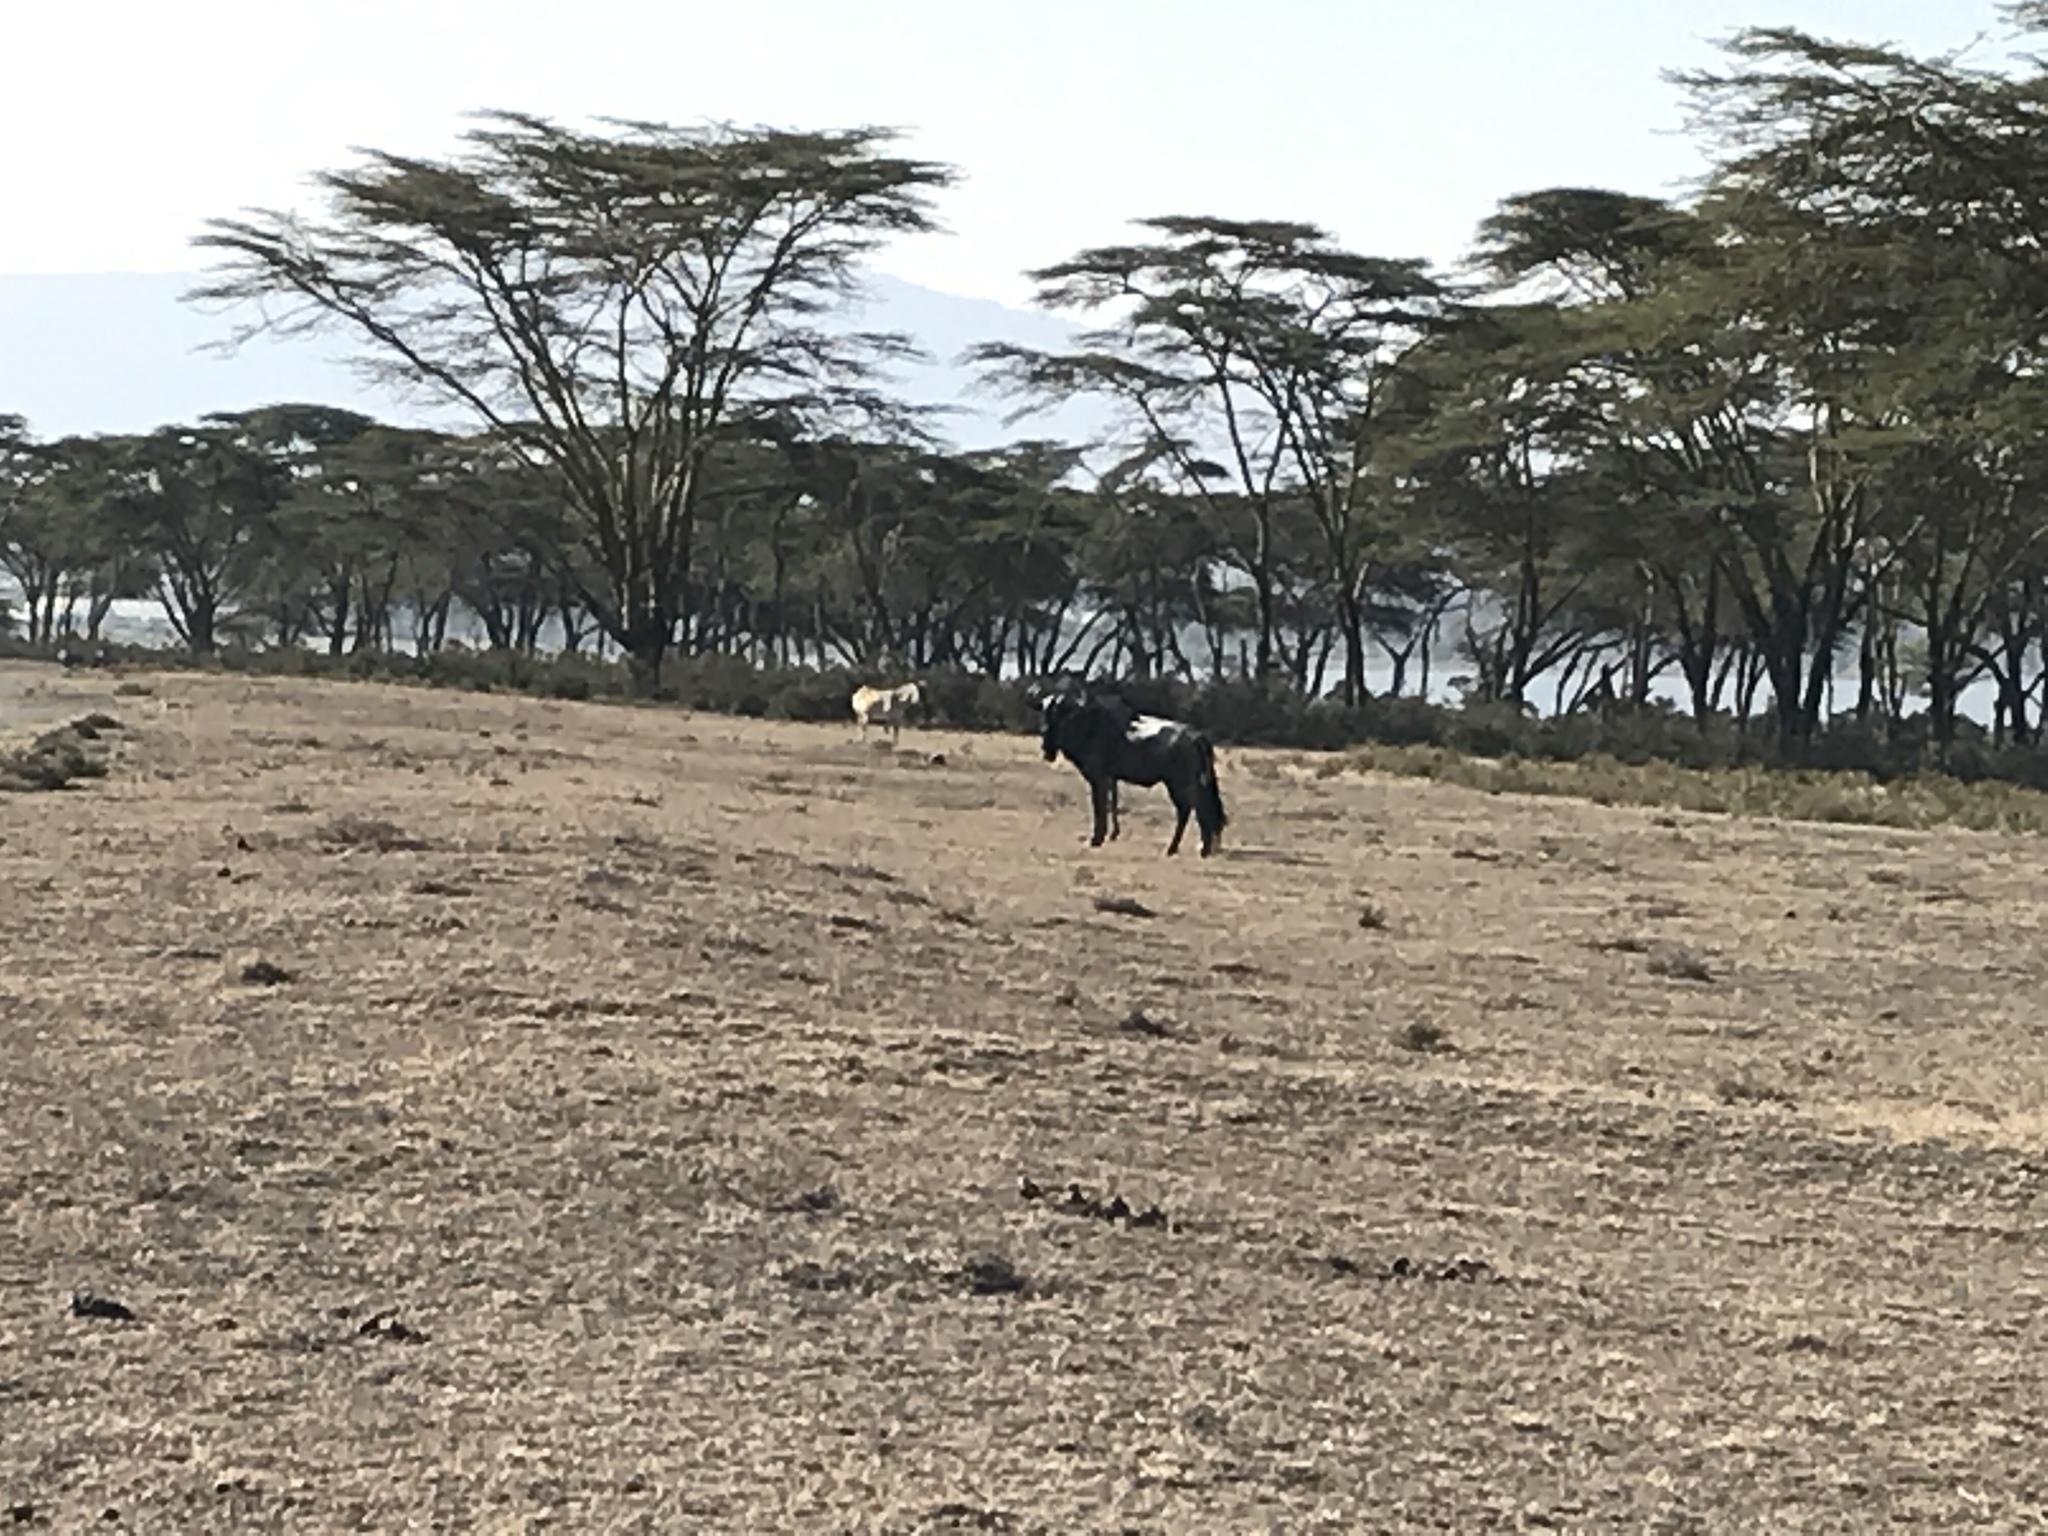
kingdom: Animalia
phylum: Chordata
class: Mammalia
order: Artiodactyla
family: Bovidae
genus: Connochaetes
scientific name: Connochaetes taurinus
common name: Blue wildebeest
